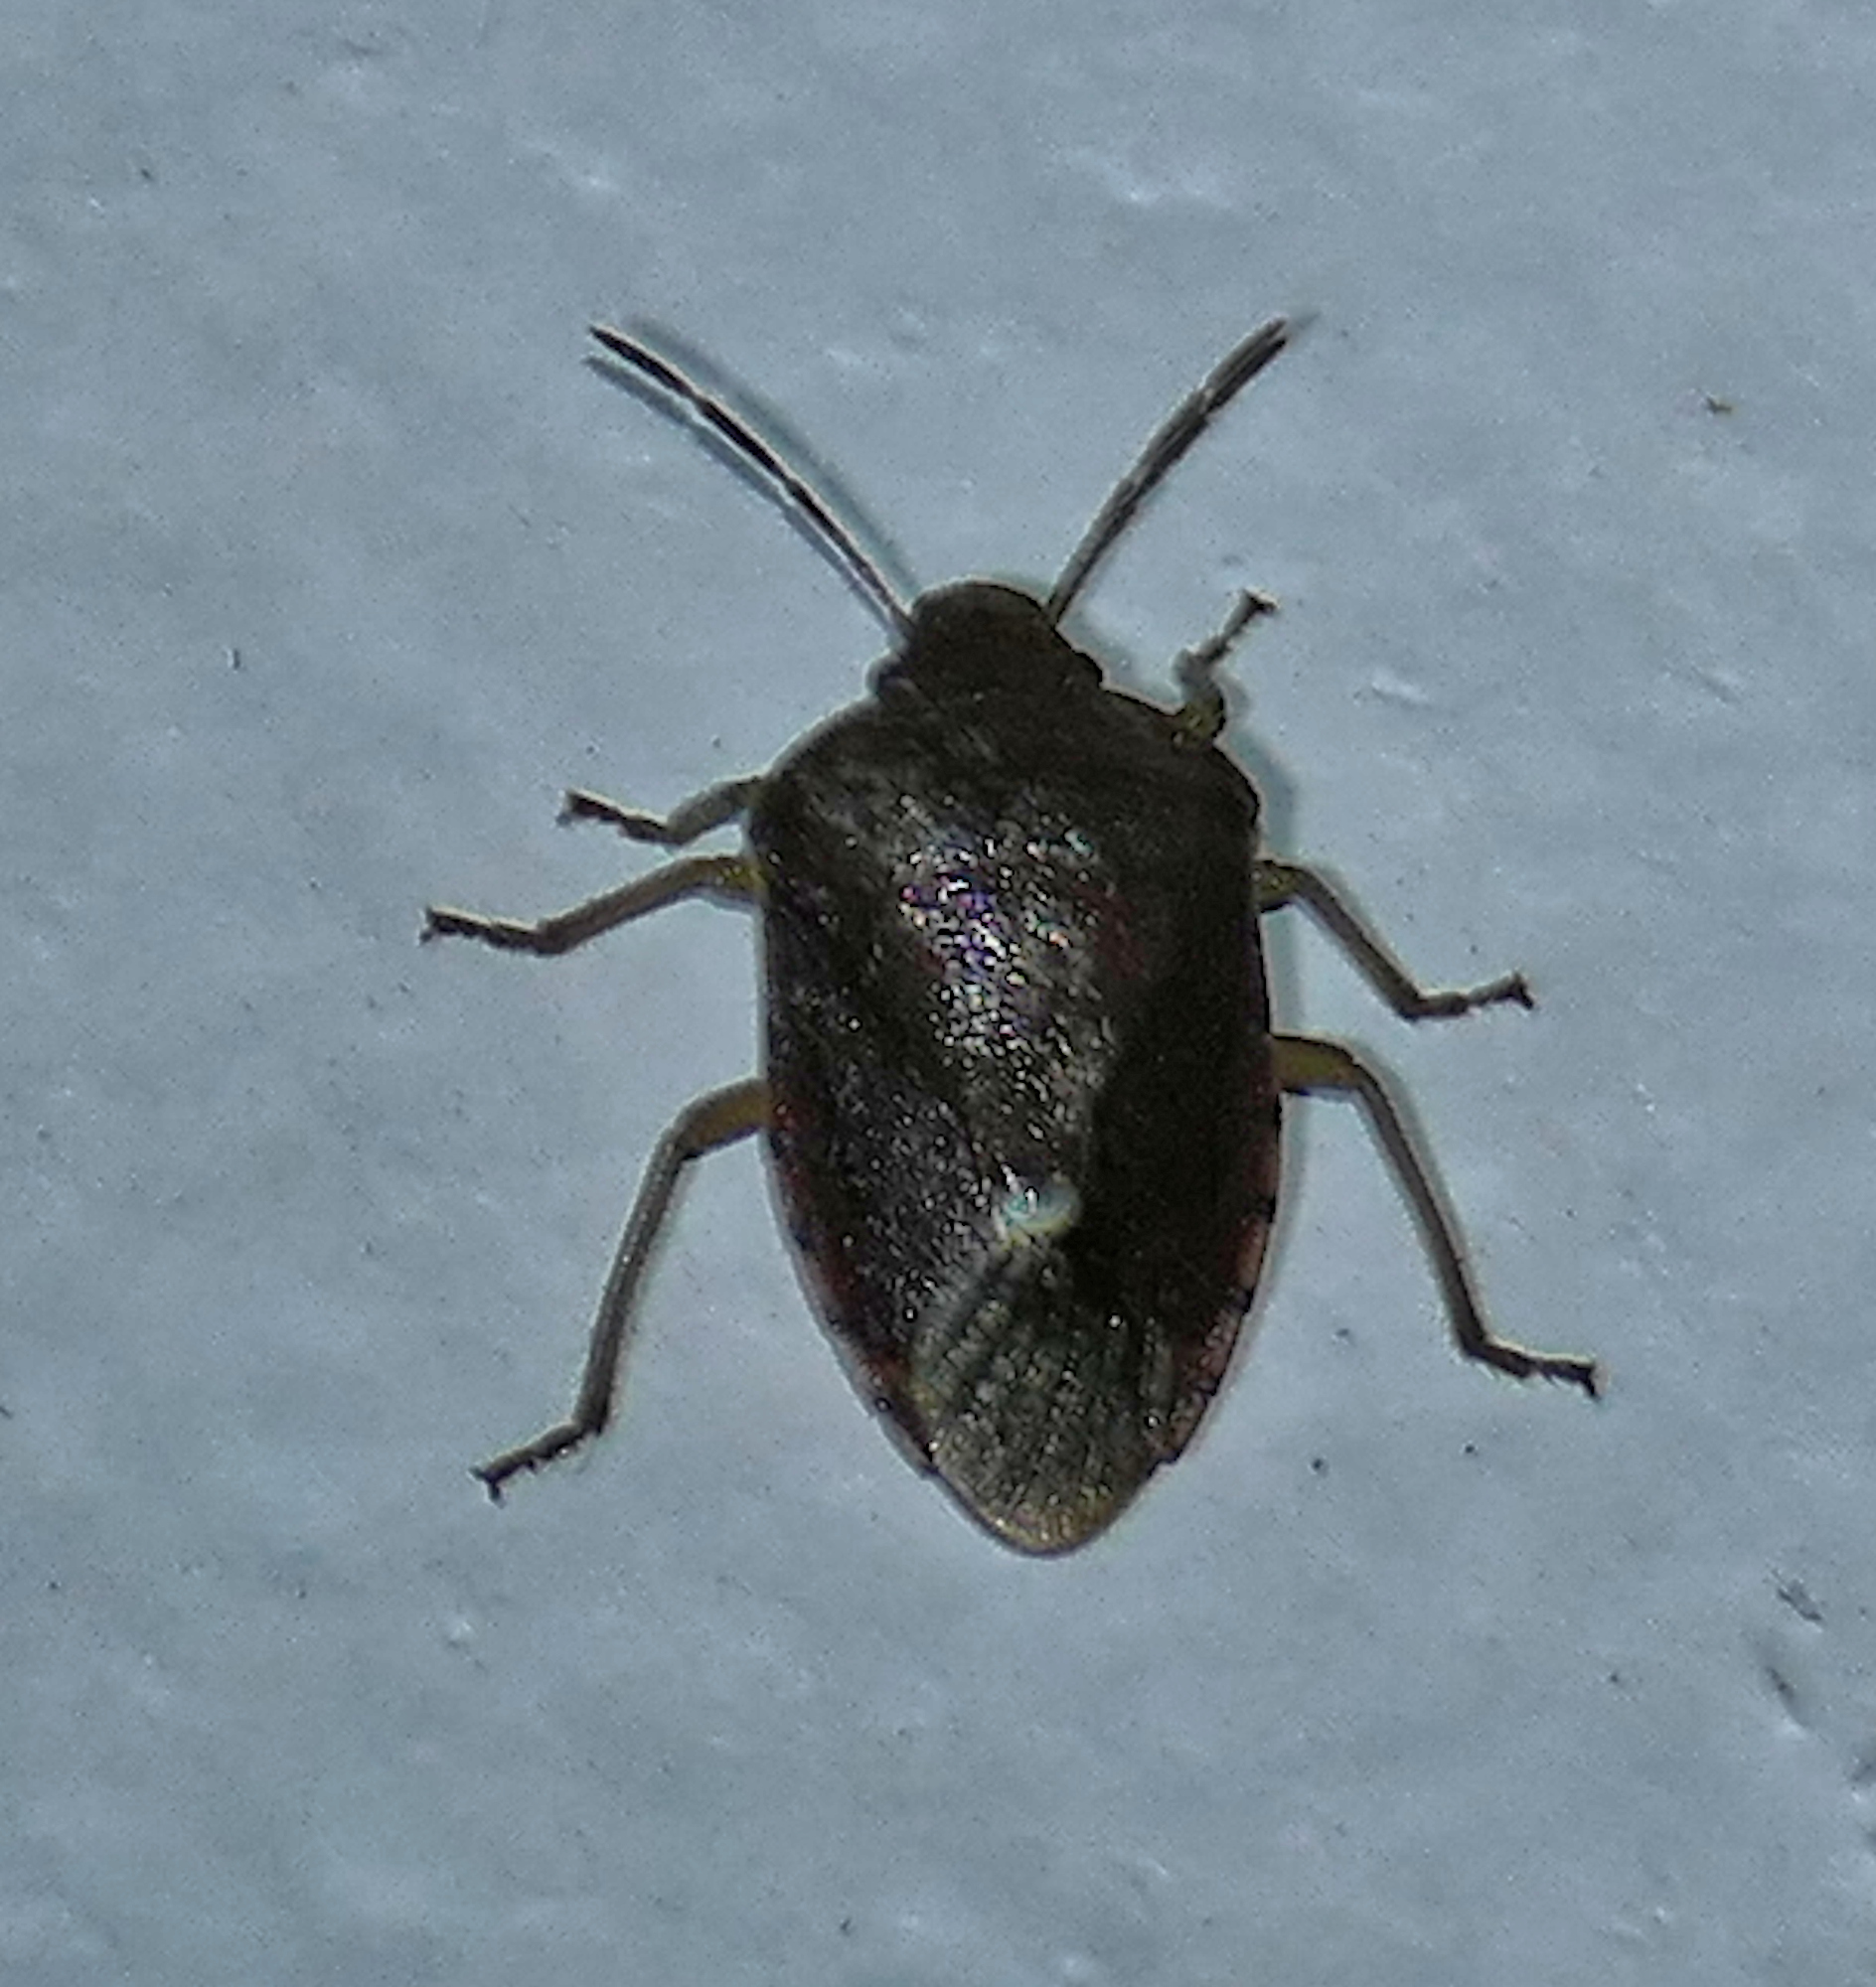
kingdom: Animalia
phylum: Arthropoda
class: Insecta
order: Hemiptera
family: Pentatomidae
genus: Banasa
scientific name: Banasa sordida
